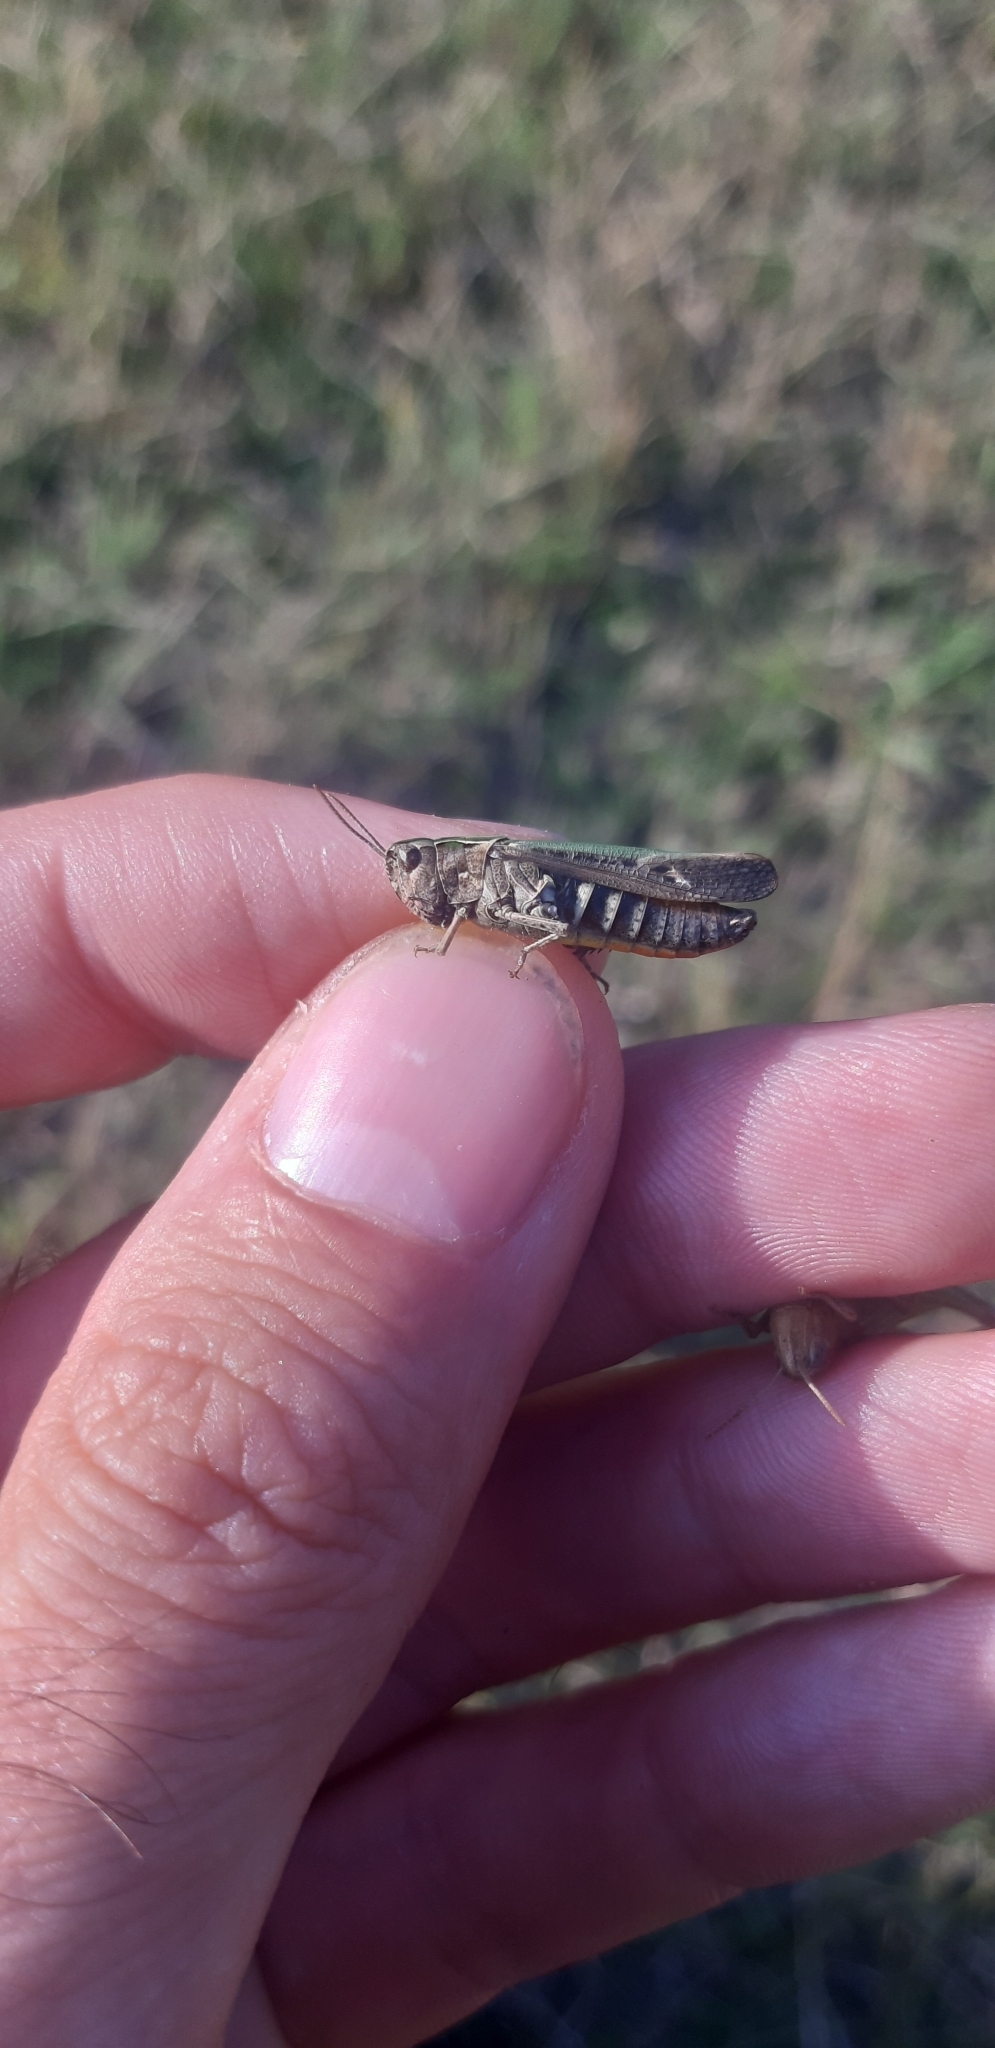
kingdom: Animalia
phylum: Arthropoda
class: Insecta
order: Orthoptera
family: Acrididae
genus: Omocestus
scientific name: Omocestus rufipes
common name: Woodland grasshopper
